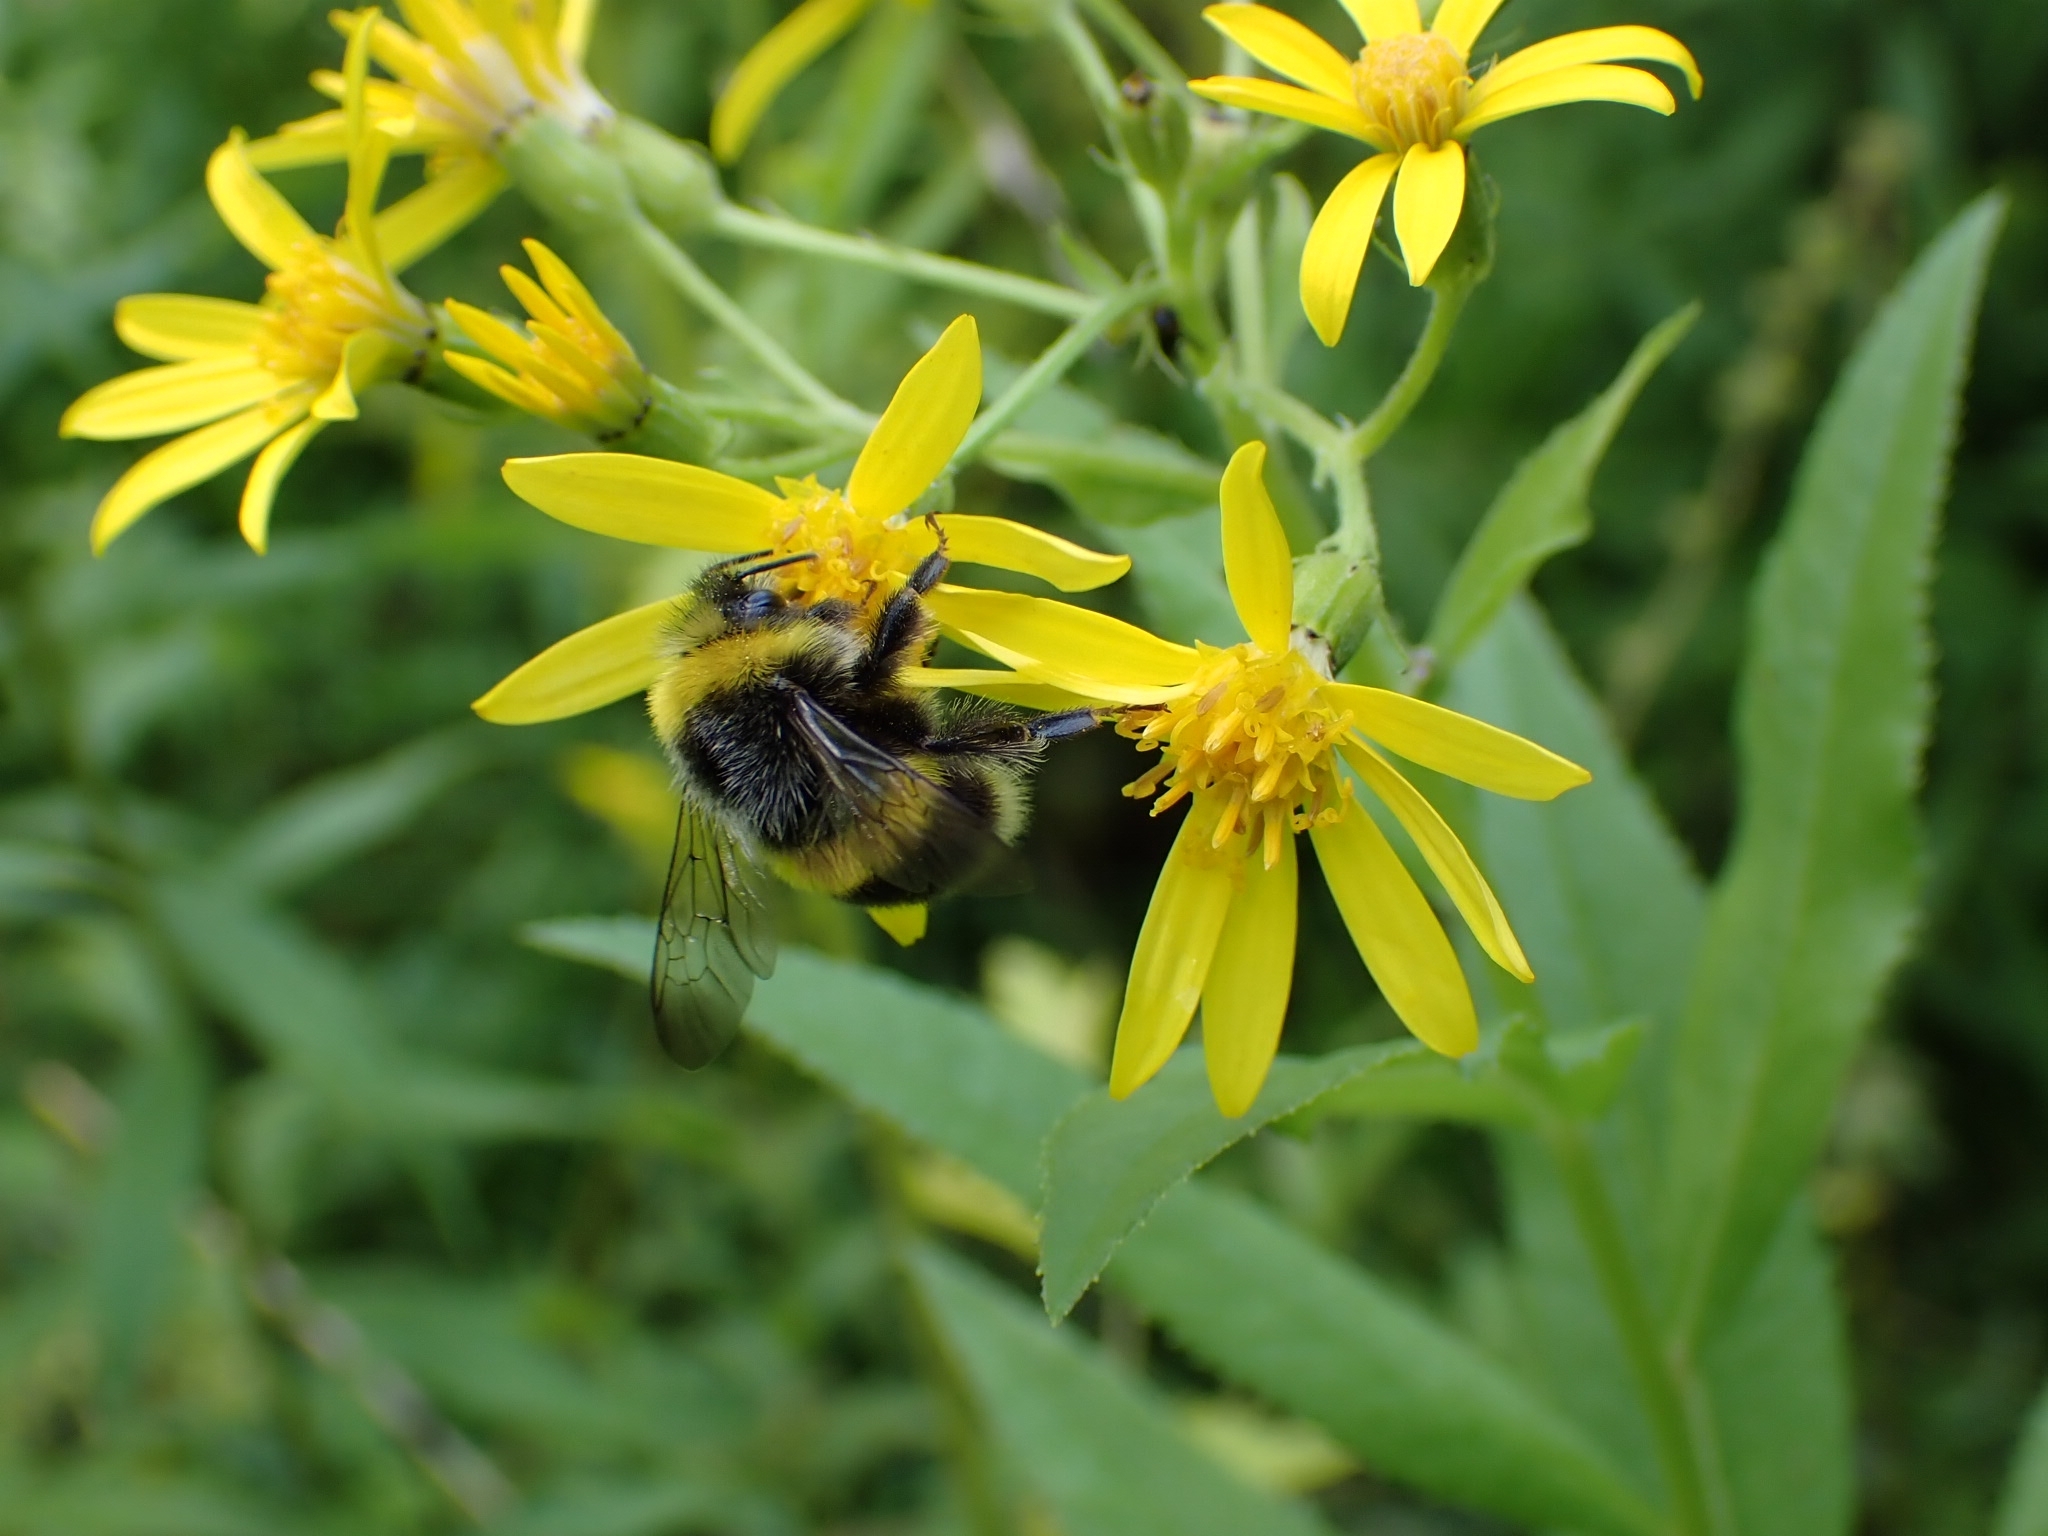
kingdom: Animalia
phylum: Arthropoda
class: Insecta
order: Hymenoptera
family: Apidae
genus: Bombus
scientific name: Bombus lucorum
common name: White-tailed bumblebee
